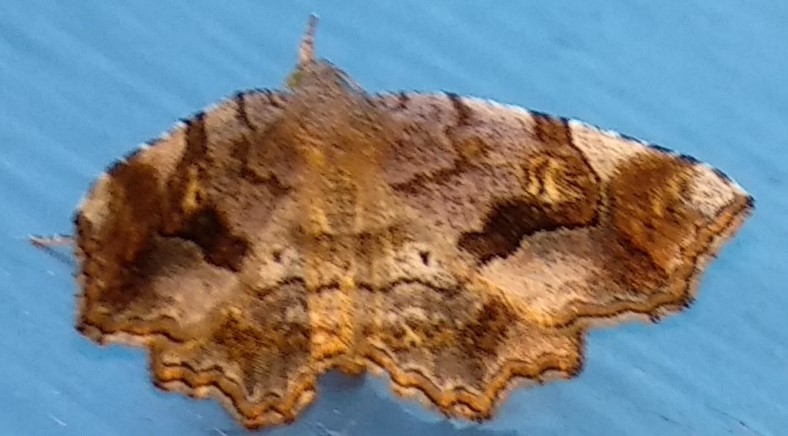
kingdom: Animalia
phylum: Arthropoda
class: Insecta
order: Lepidoptera
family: Erebidae
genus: Pangrapta
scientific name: Pangrapta decoralis
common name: Decorated owlet
